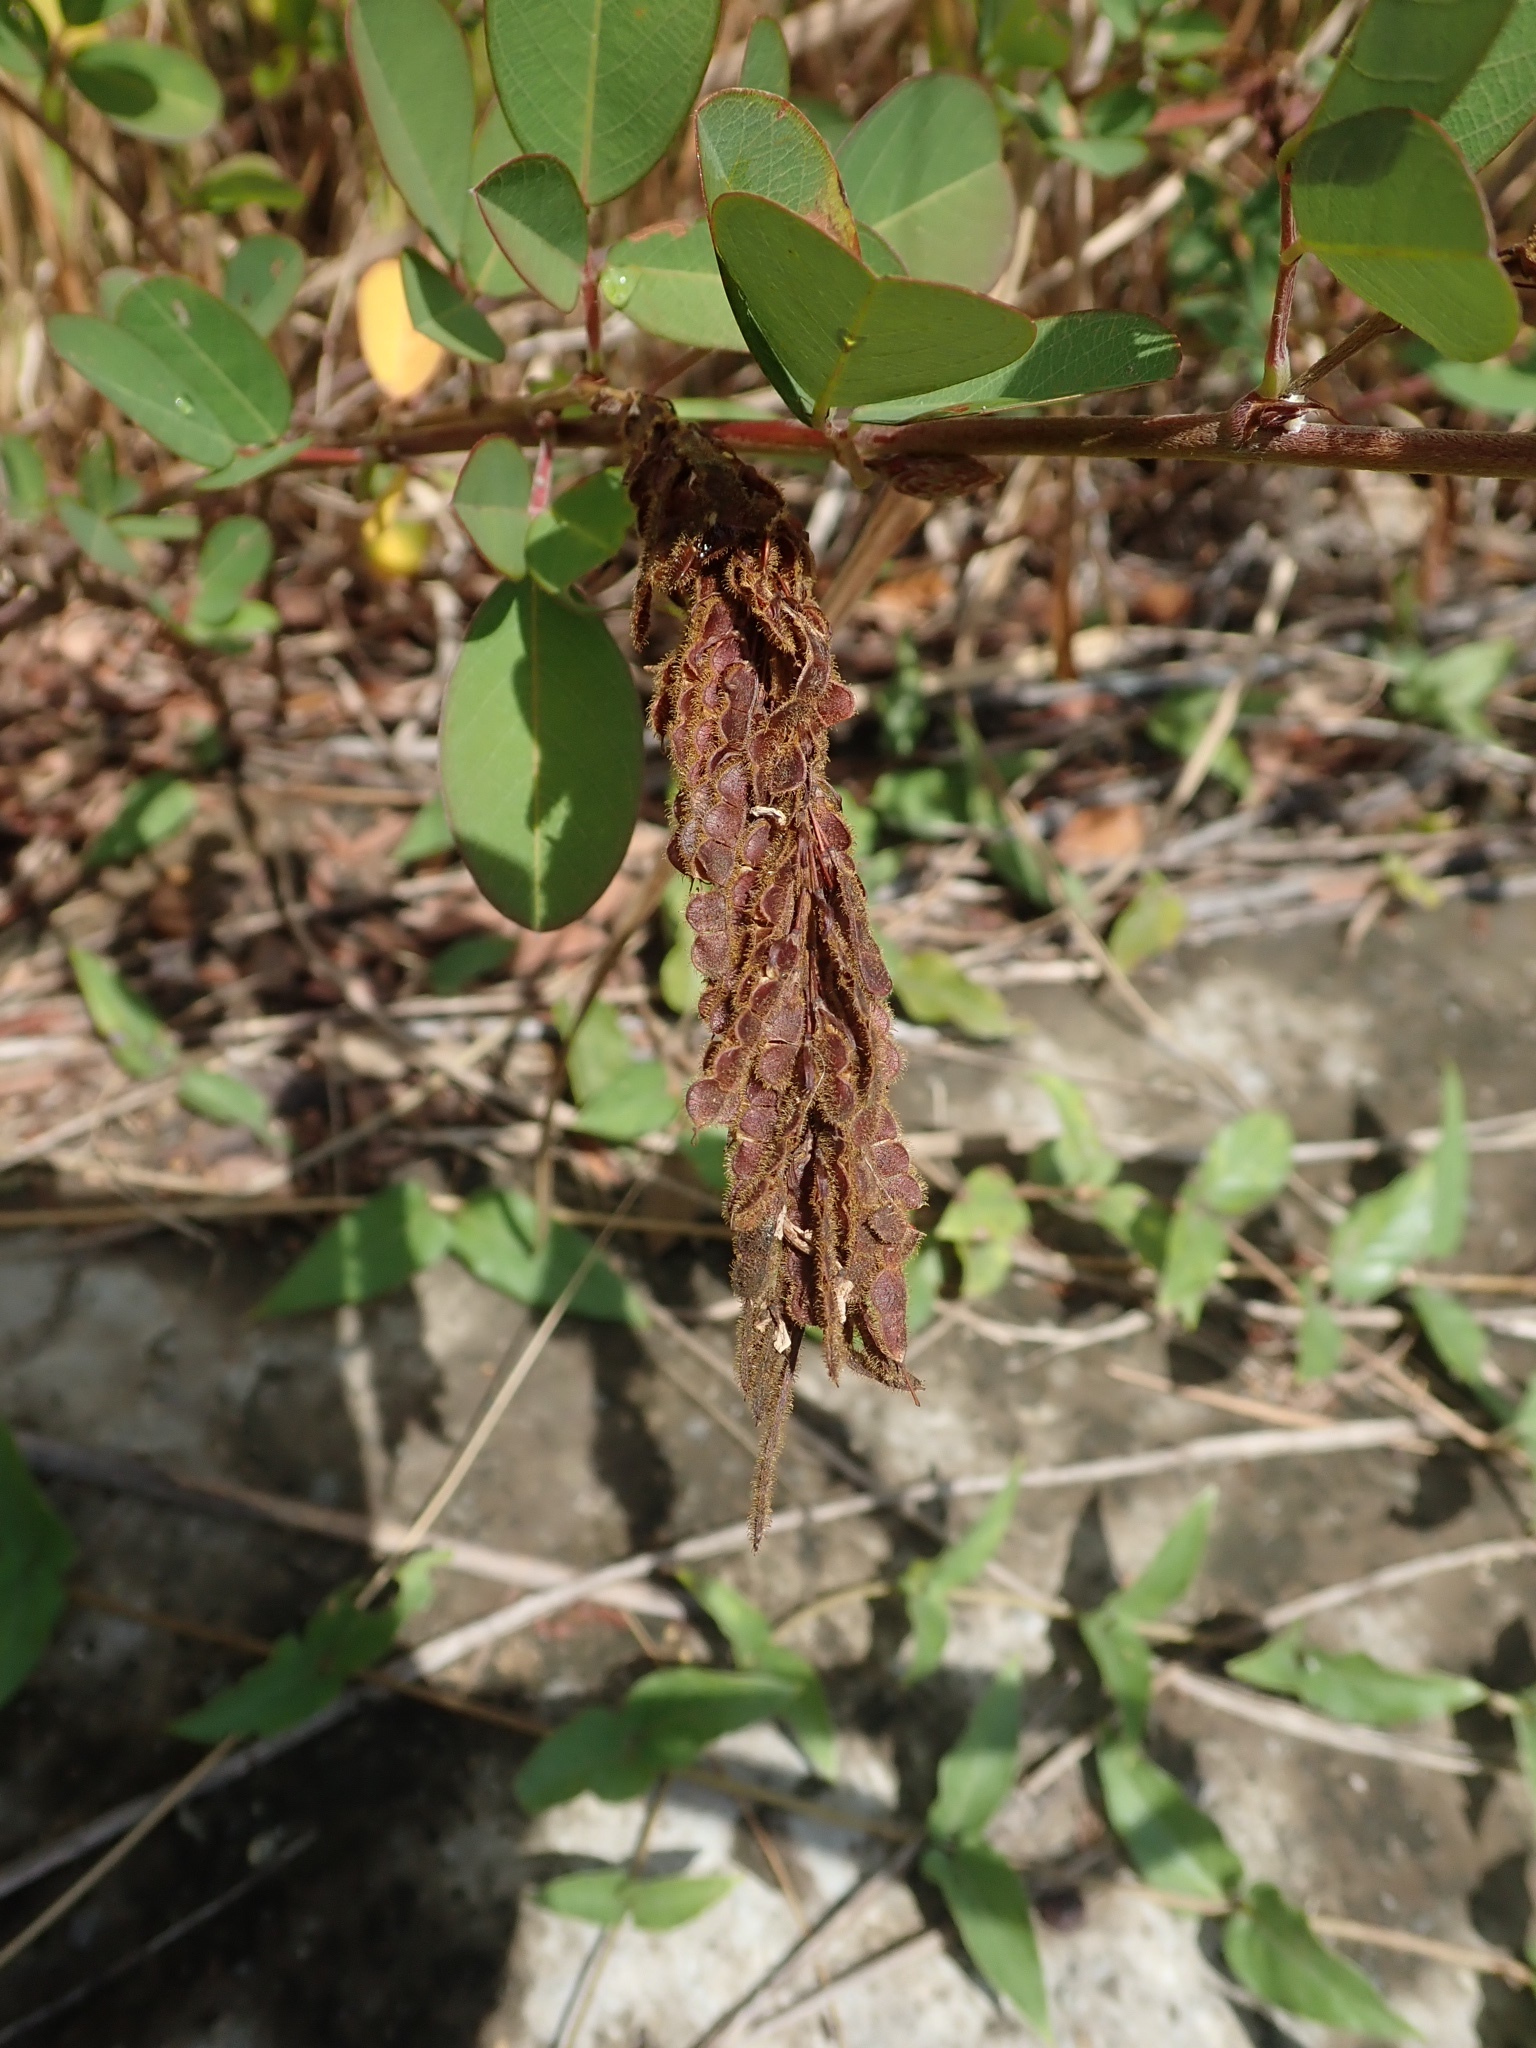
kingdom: Plantae
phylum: Tracheophyta
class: Magnoliopsida
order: Fabales
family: Fabaceae
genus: Grona
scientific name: Grona heterocarpos
